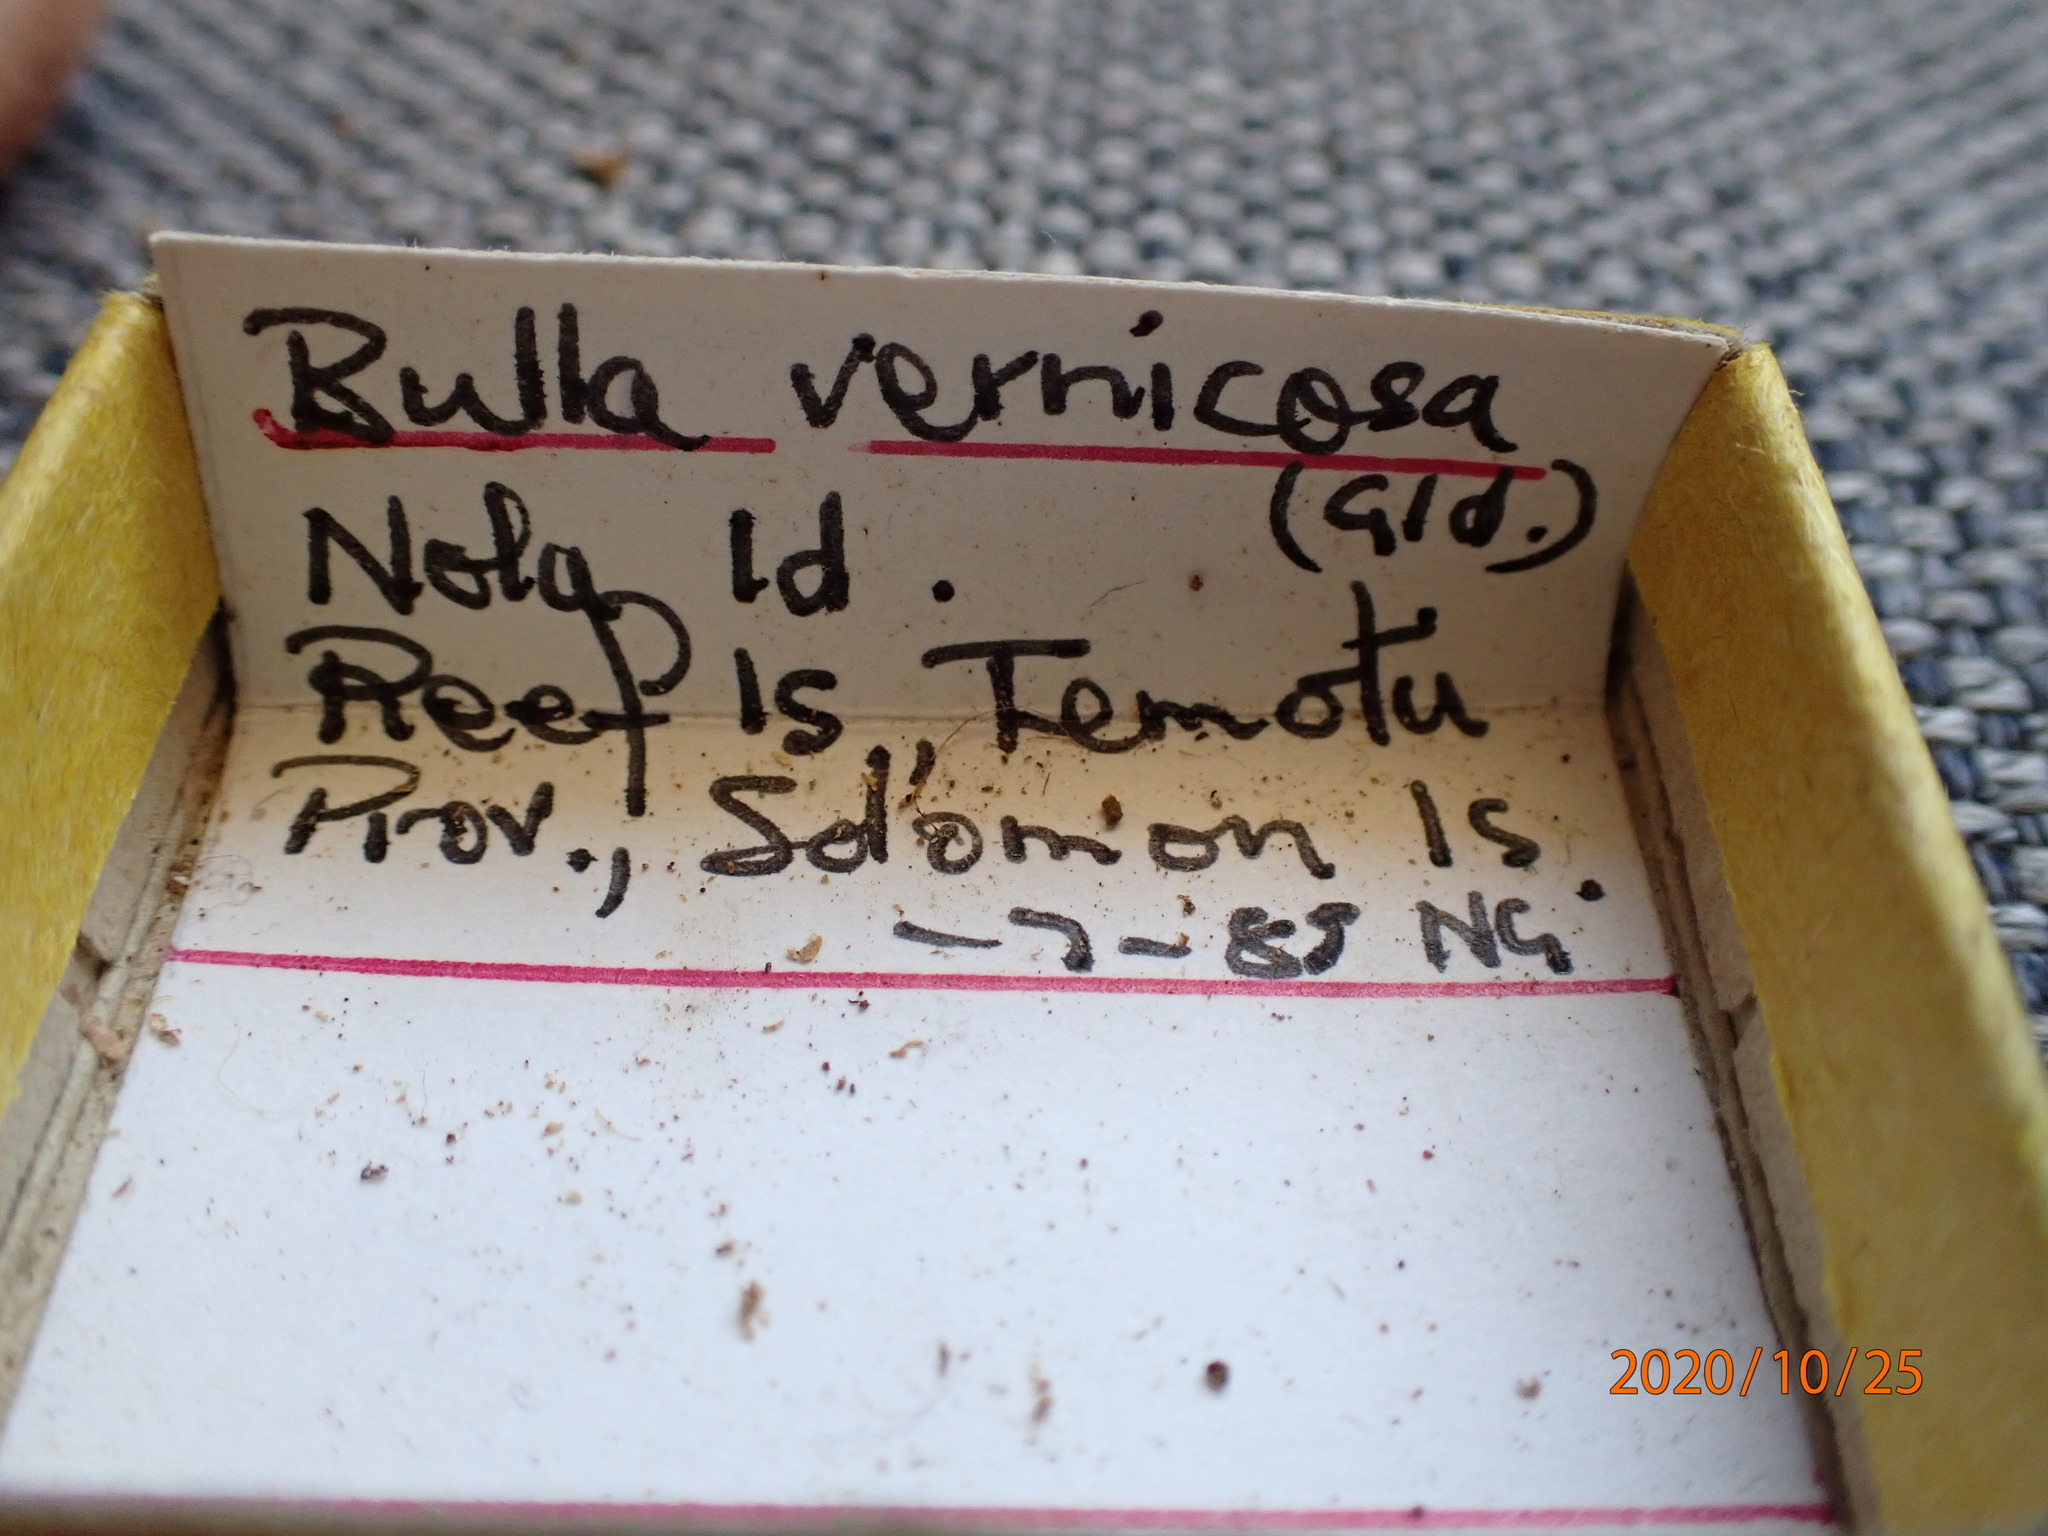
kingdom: Animalia
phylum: Mollusca
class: Gastropoda
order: Cephalaspidea
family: Bullidae
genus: Bulla
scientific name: Bulla vernicosa
